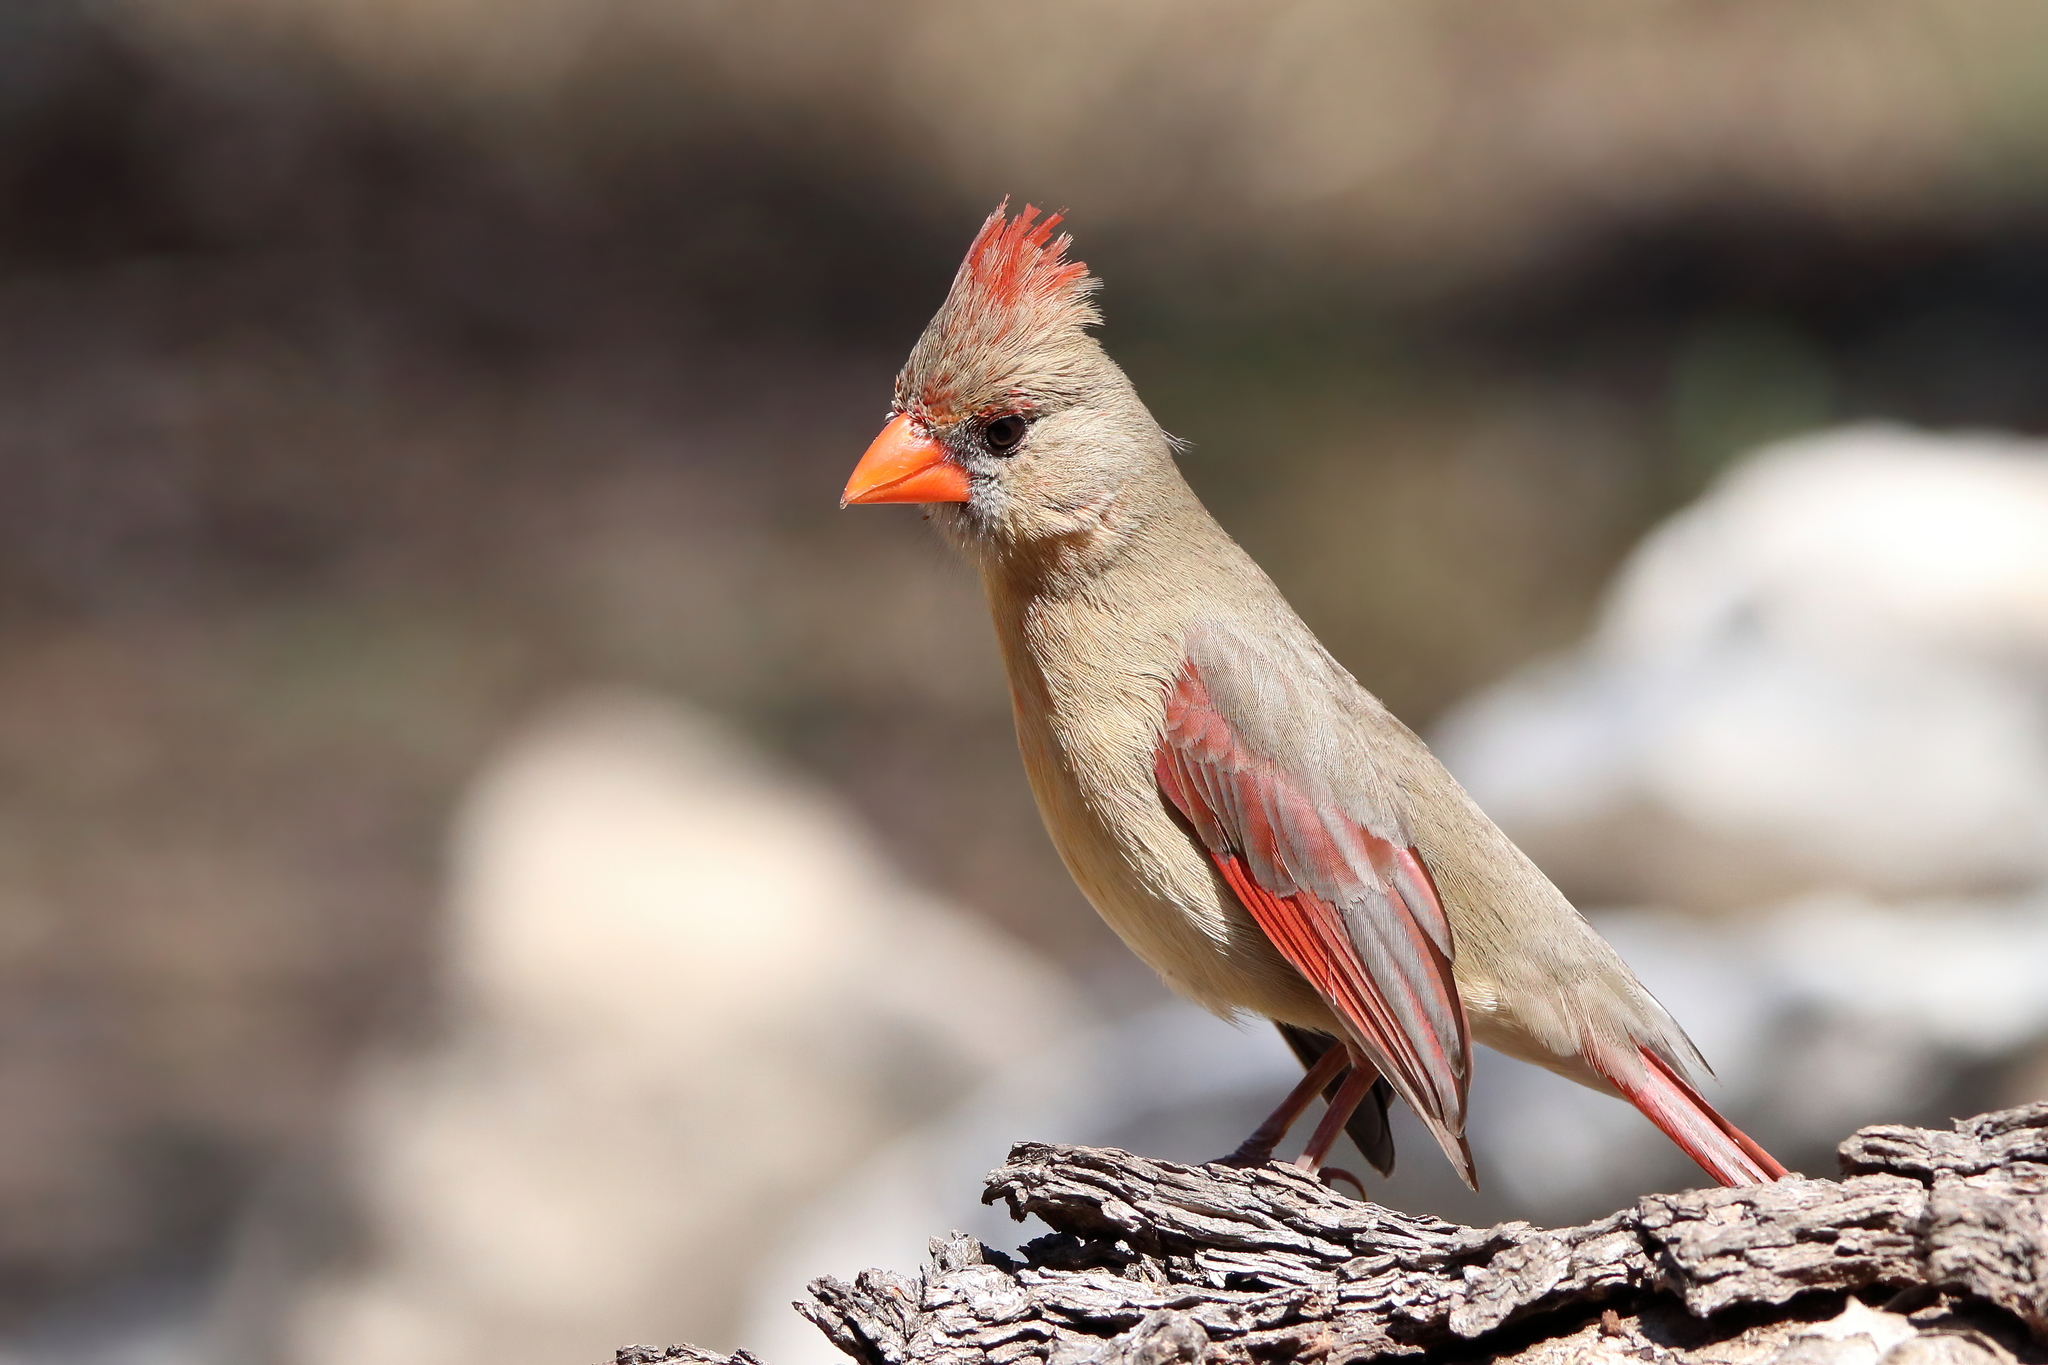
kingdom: Animalia
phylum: Chordata
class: Aves
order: Passeriformes
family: Cardinalidae
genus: Cardinalis
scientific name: Cardinalis cardinalis
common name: Northern cardinal
